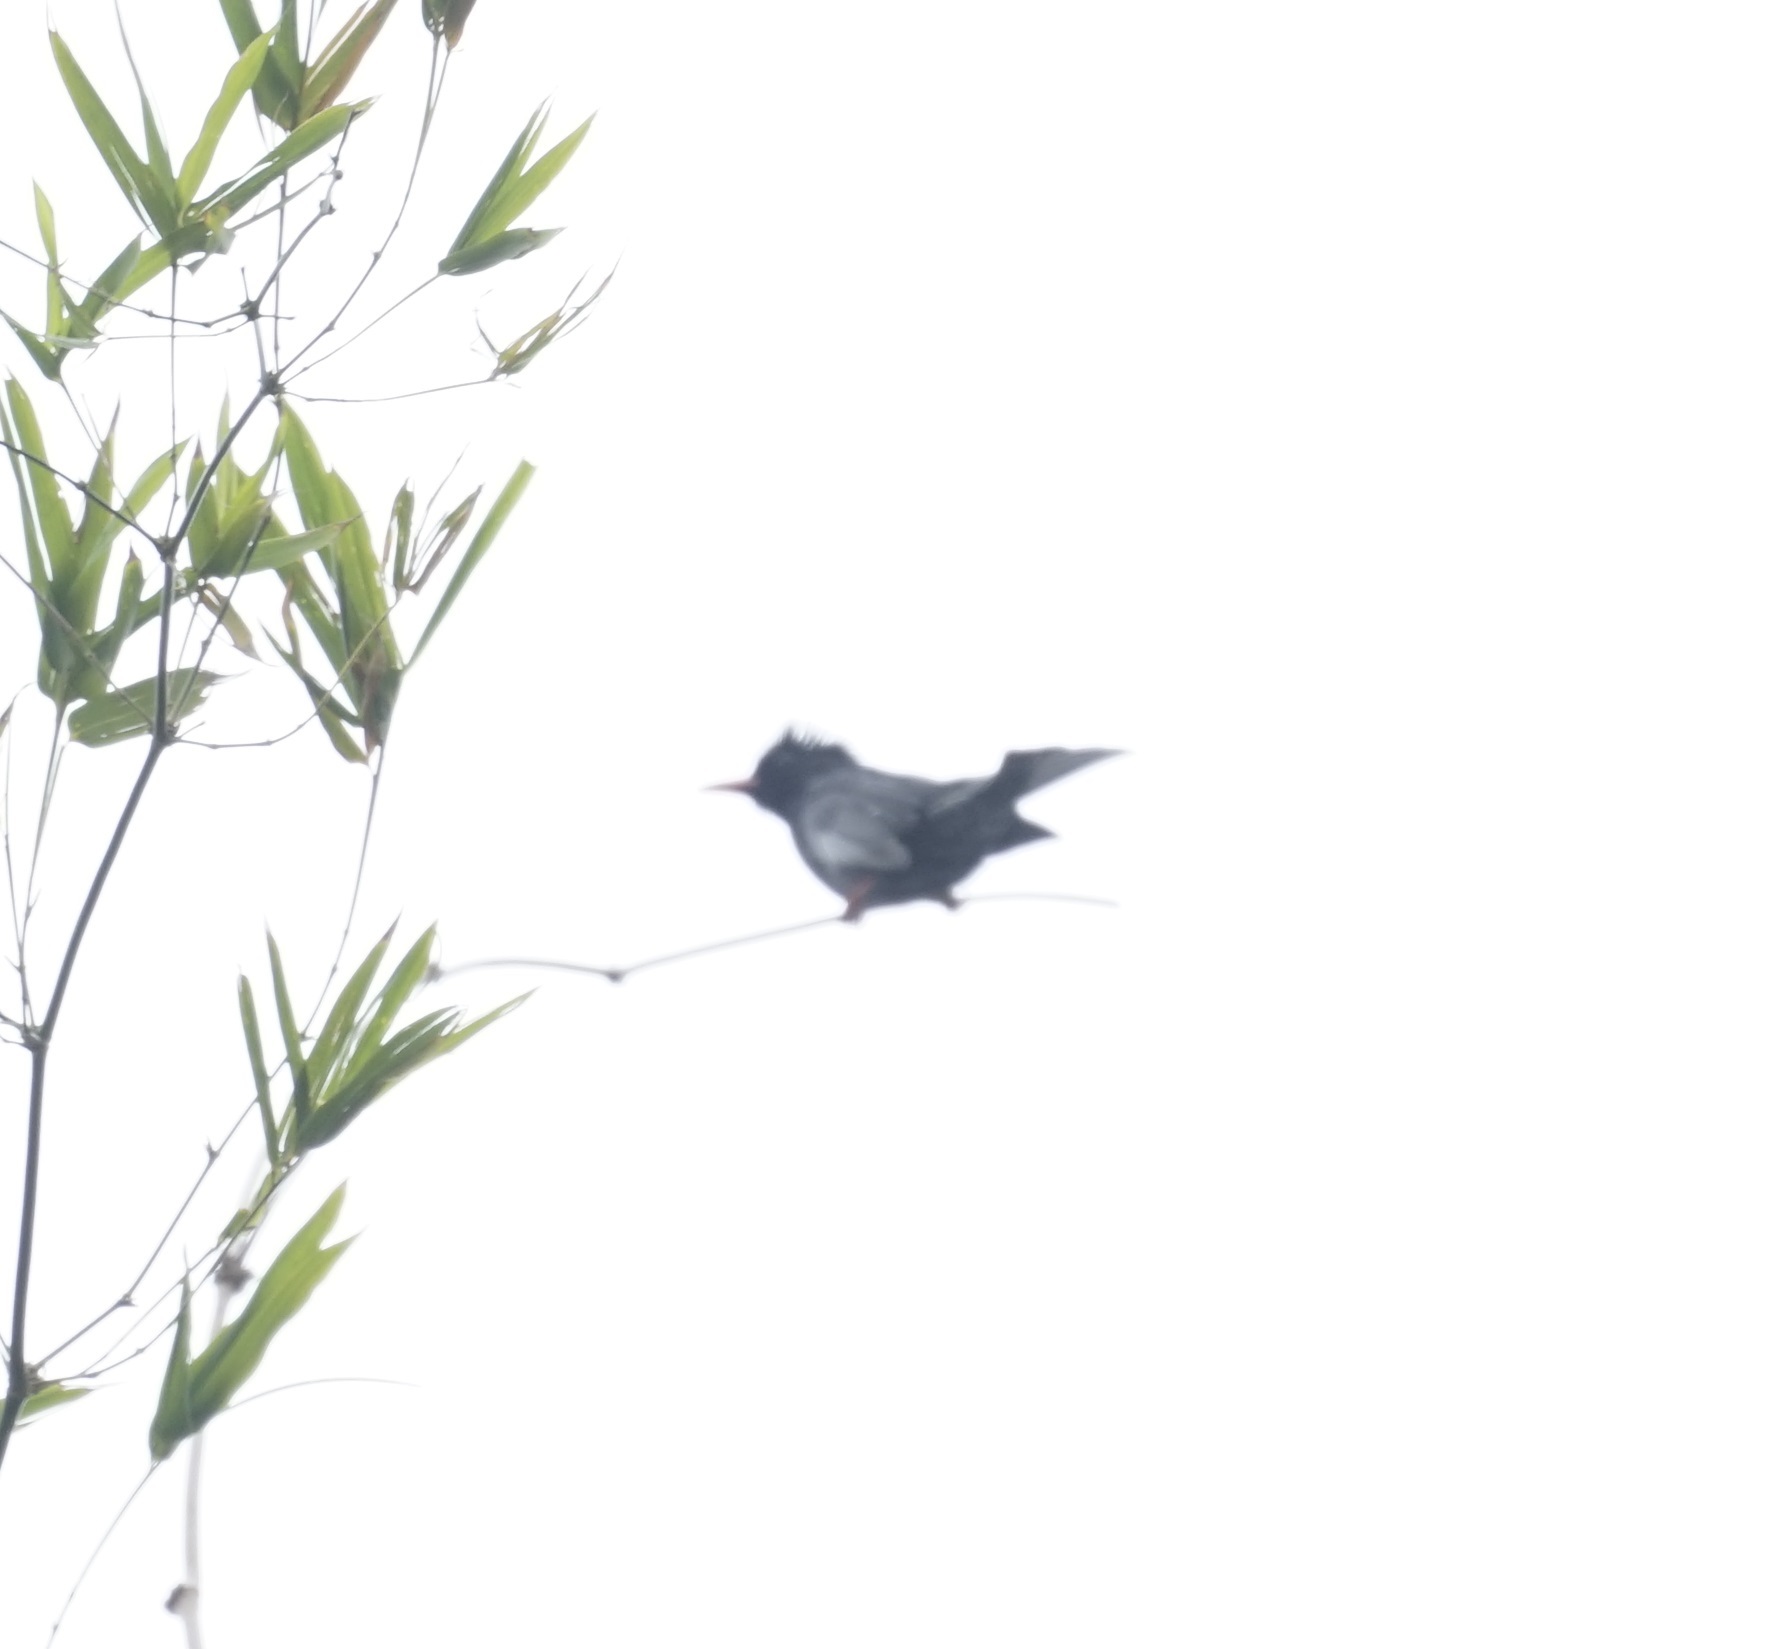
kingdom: Animalia
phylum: Chordata
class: Aves
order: Passeriformes
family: Pycnonotidae
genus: Hypsipetes
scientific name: Hypsipetes leucocephalus
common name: Black bulbul
